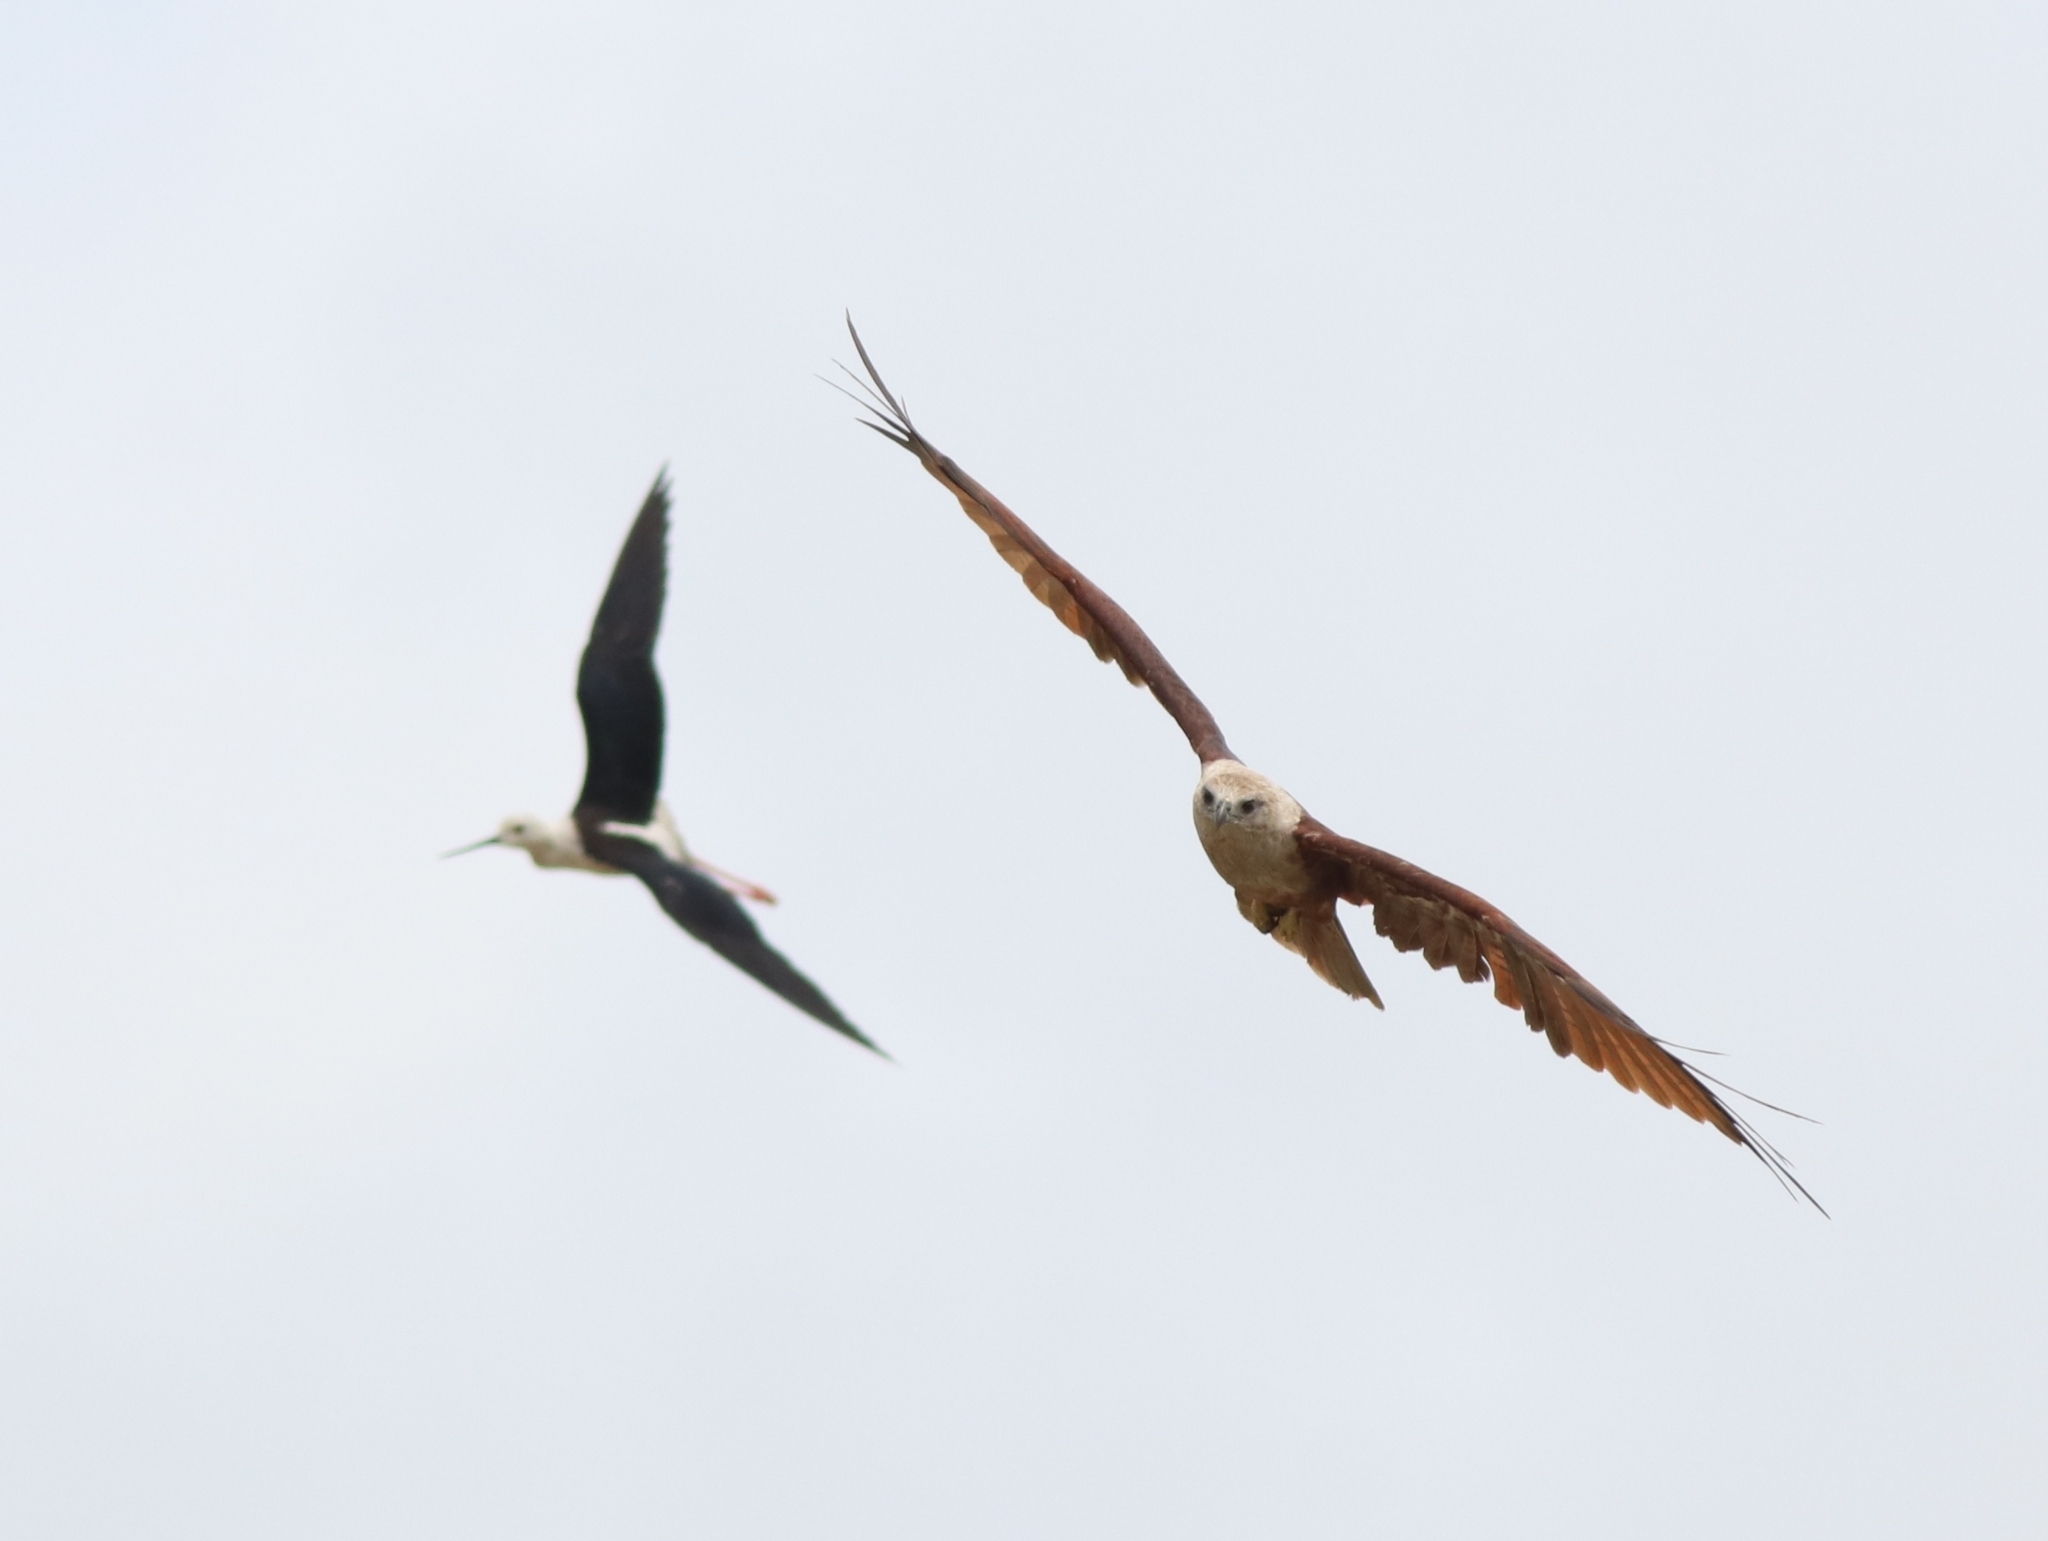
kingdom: Animalia
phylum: Chordata
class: Aves
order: Accipitriformes
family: Accipitridae
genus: Haliastur
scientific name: Haliastur indus
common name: Brahminy kite
